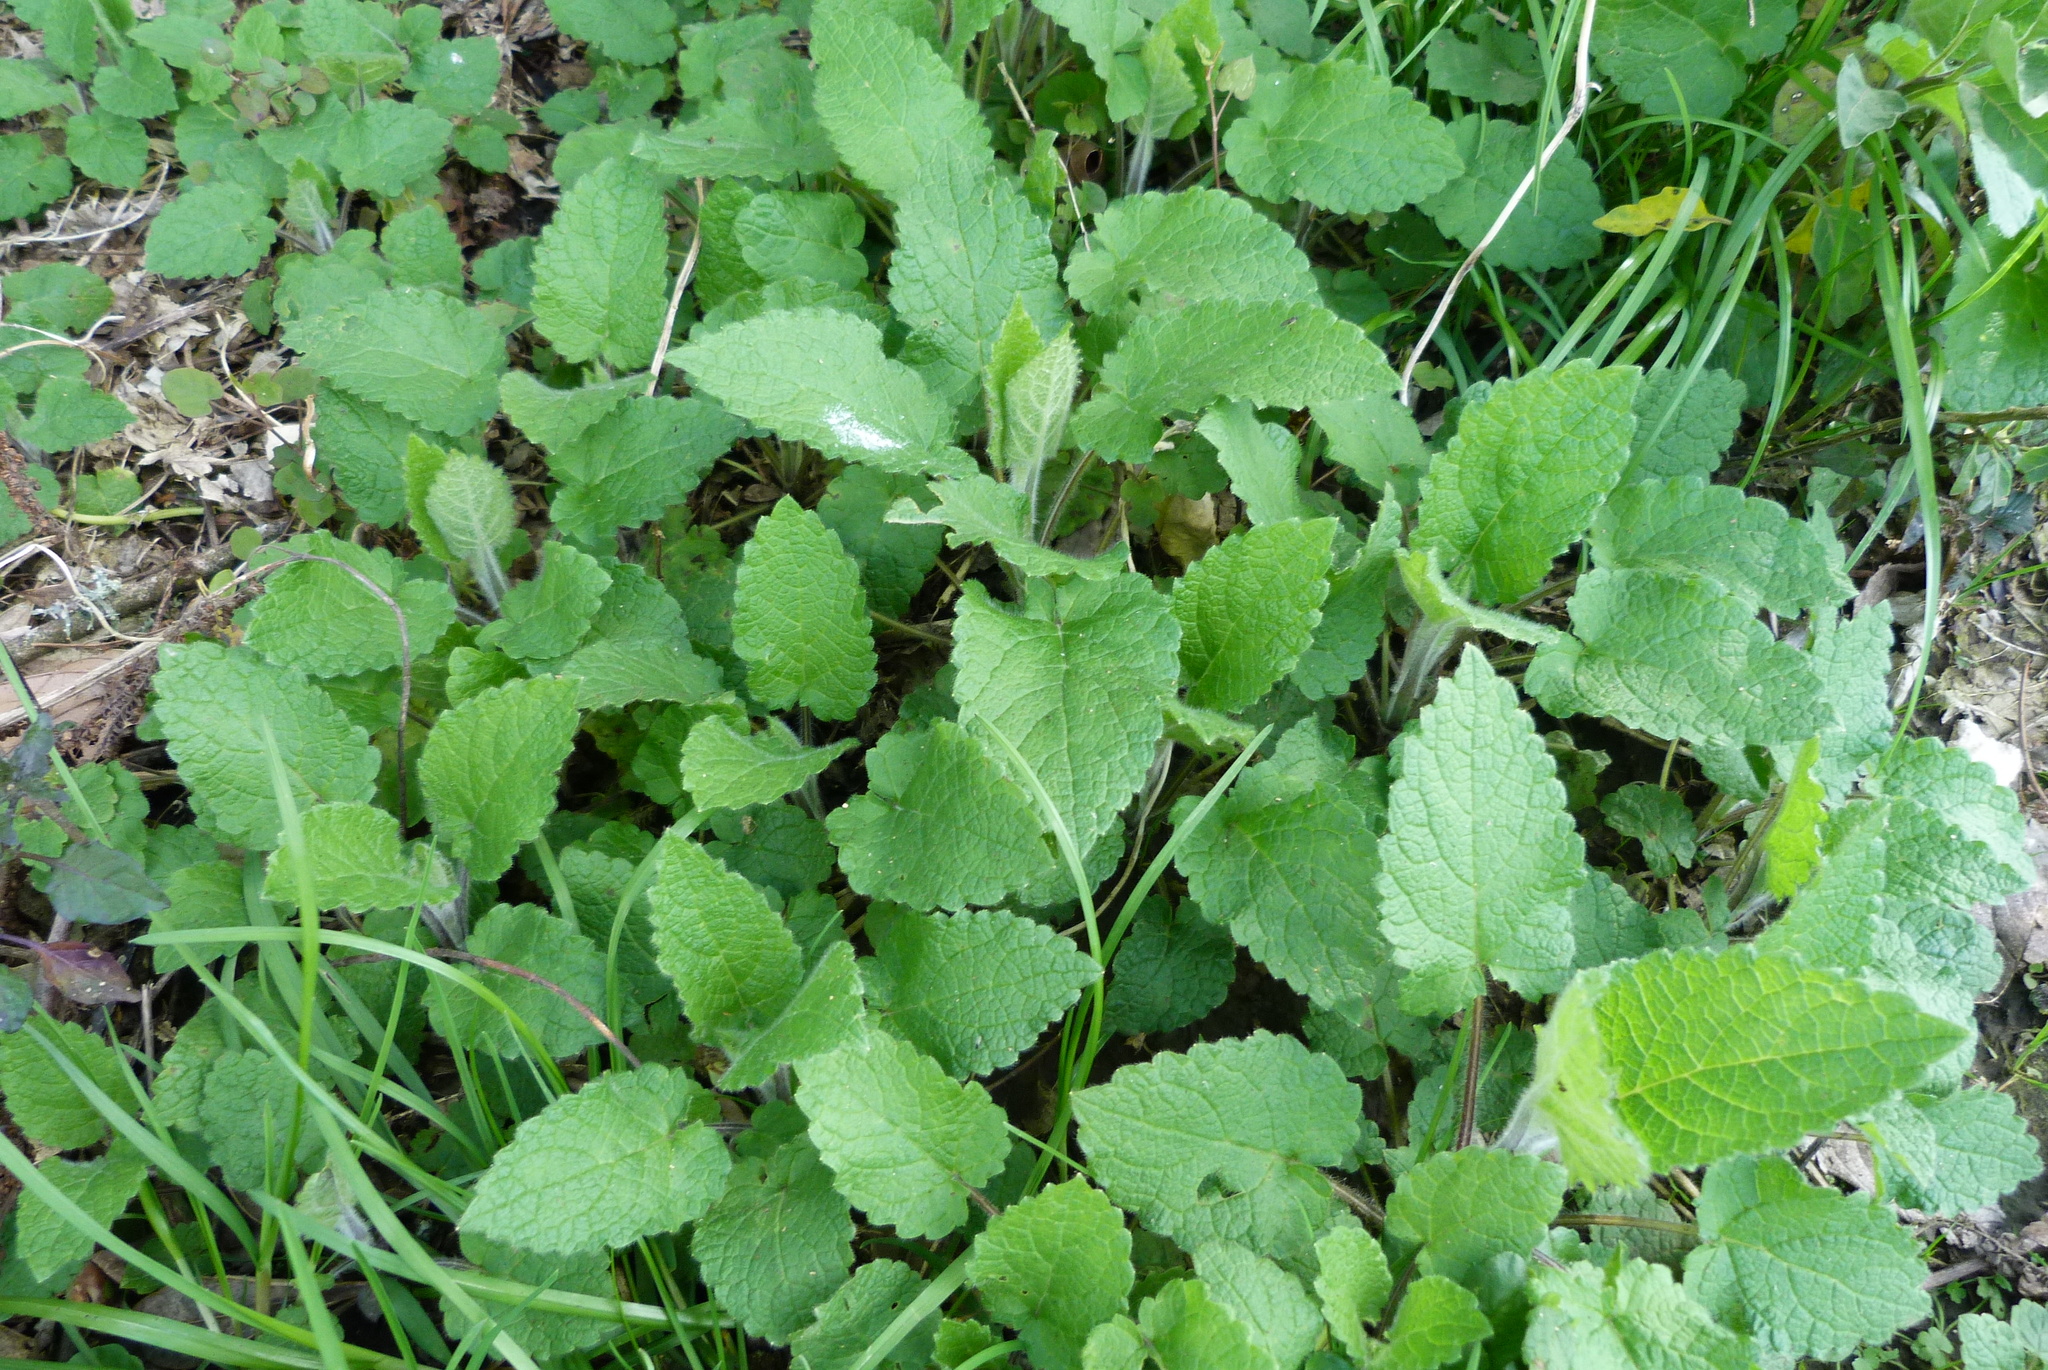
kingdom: Plantae
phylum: Tracheophyta
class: Magnoliopsida
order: Lamiales
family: Lamiaceae
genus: Stachys
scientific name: Stachys sylvatica
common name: Hedge woundwort
